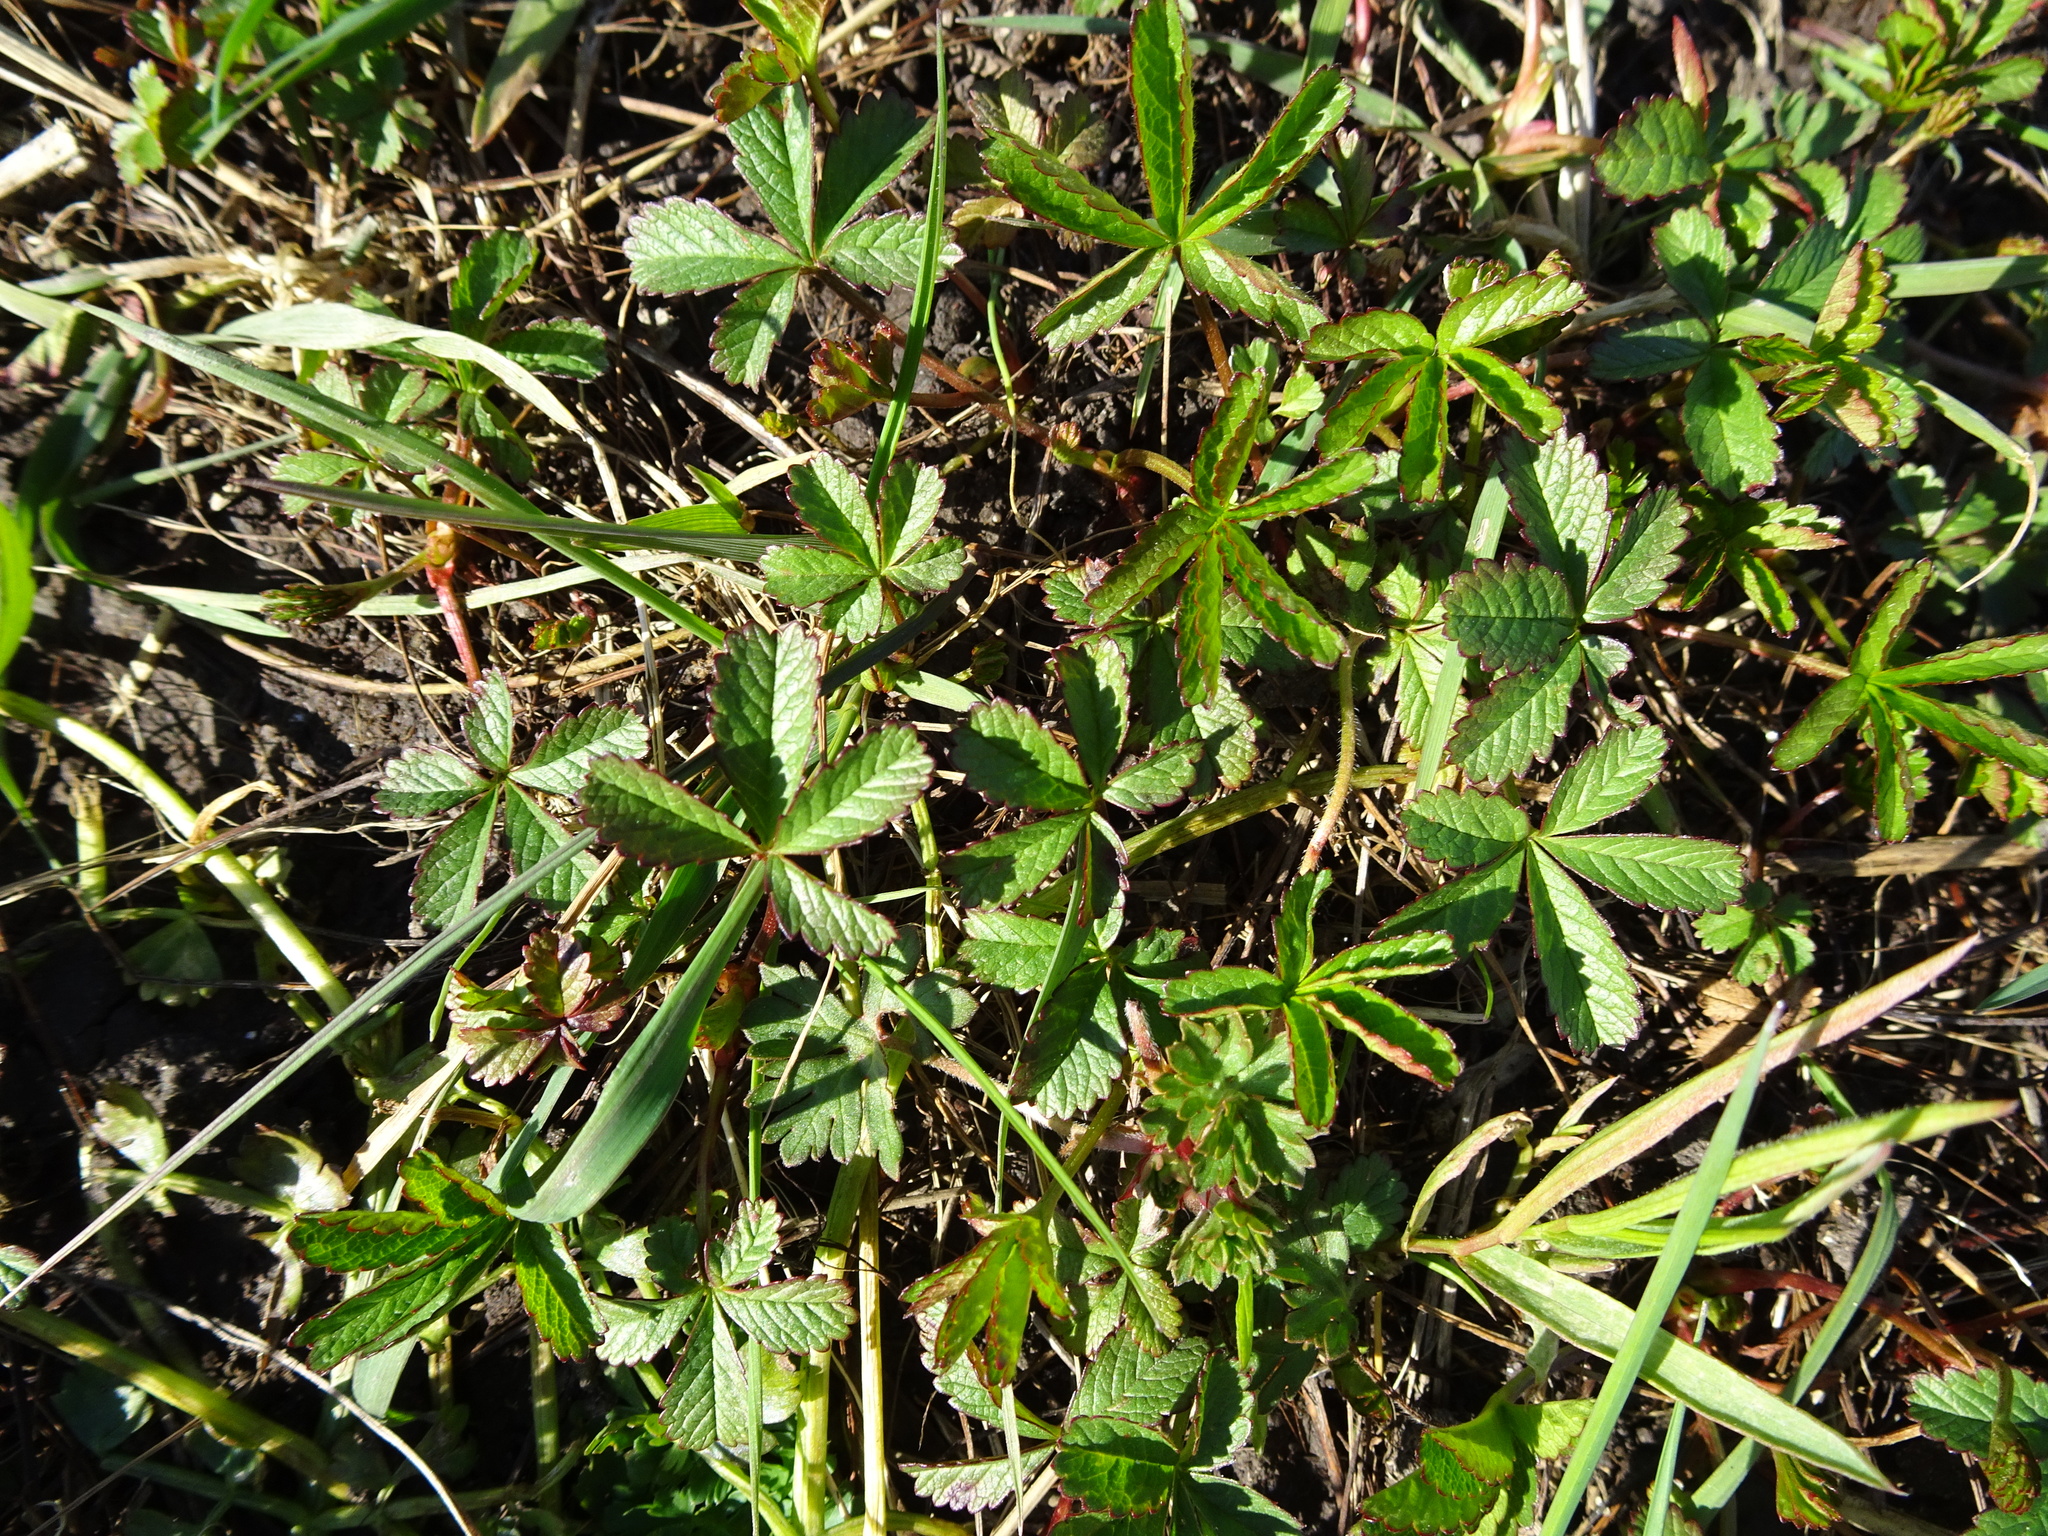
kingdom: Plantae
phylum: Tracheophyta
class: Magnoliopsida
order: Rosales
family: Rosaceae
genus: Potentilla
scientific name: Potentilla reptans
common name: Creeping cinquefoil
